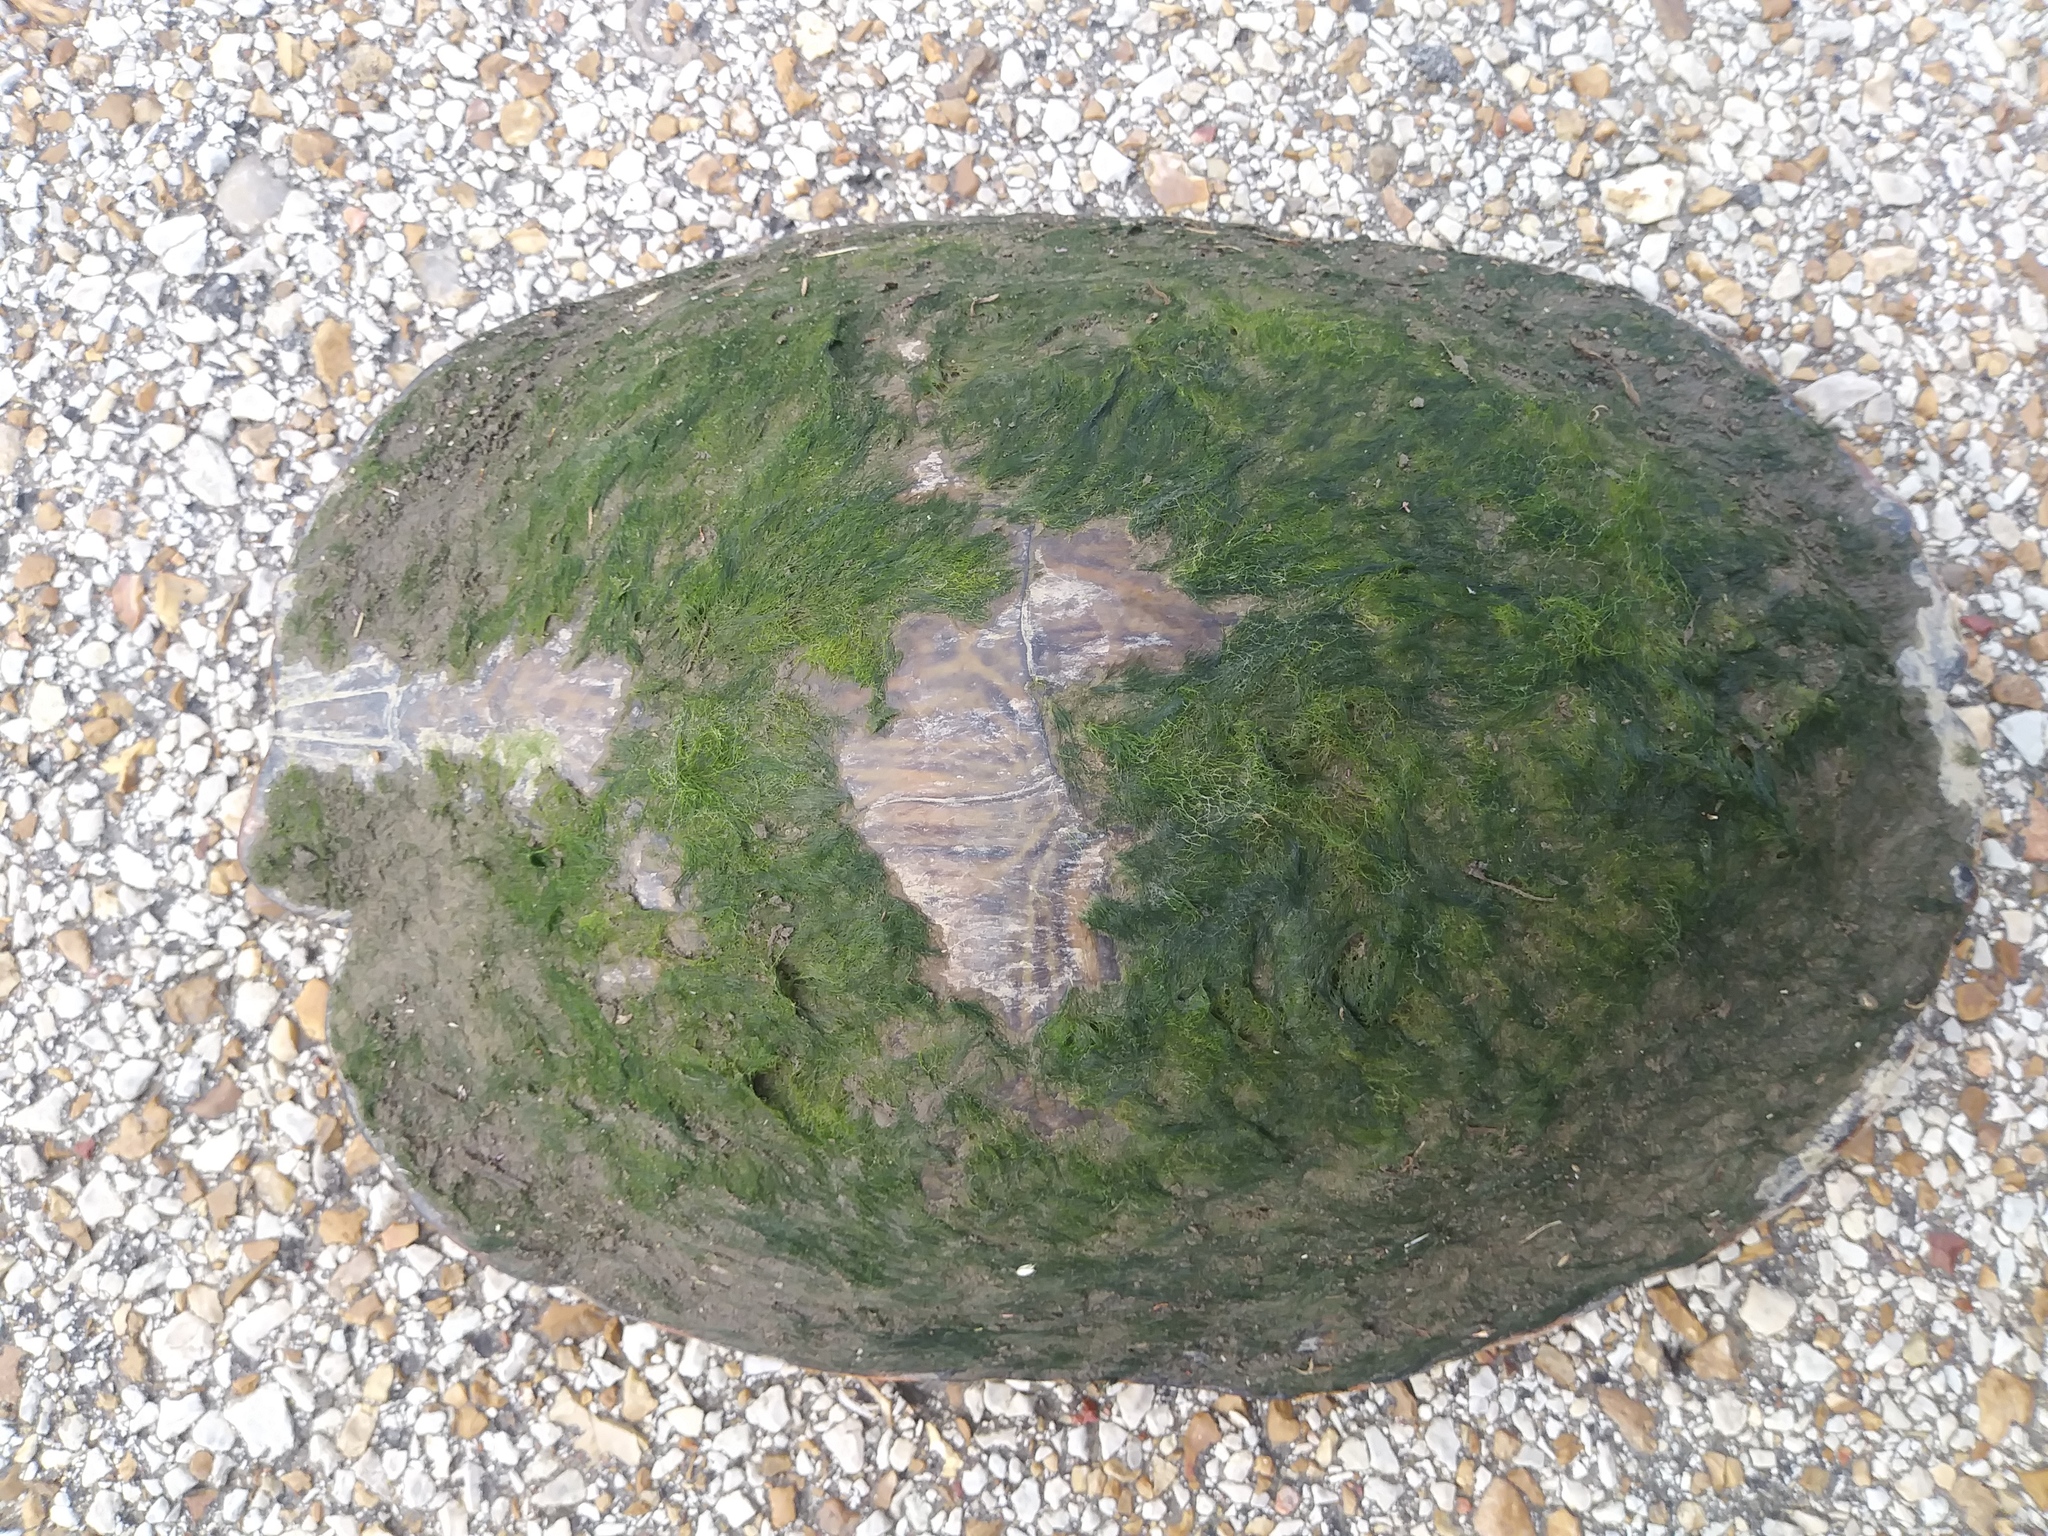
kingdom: Animalia
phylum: Chordata
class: Testudines
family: Emydidae
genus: Pseudemys
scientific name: Pseudemys concinna
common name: Eastern river cooter
